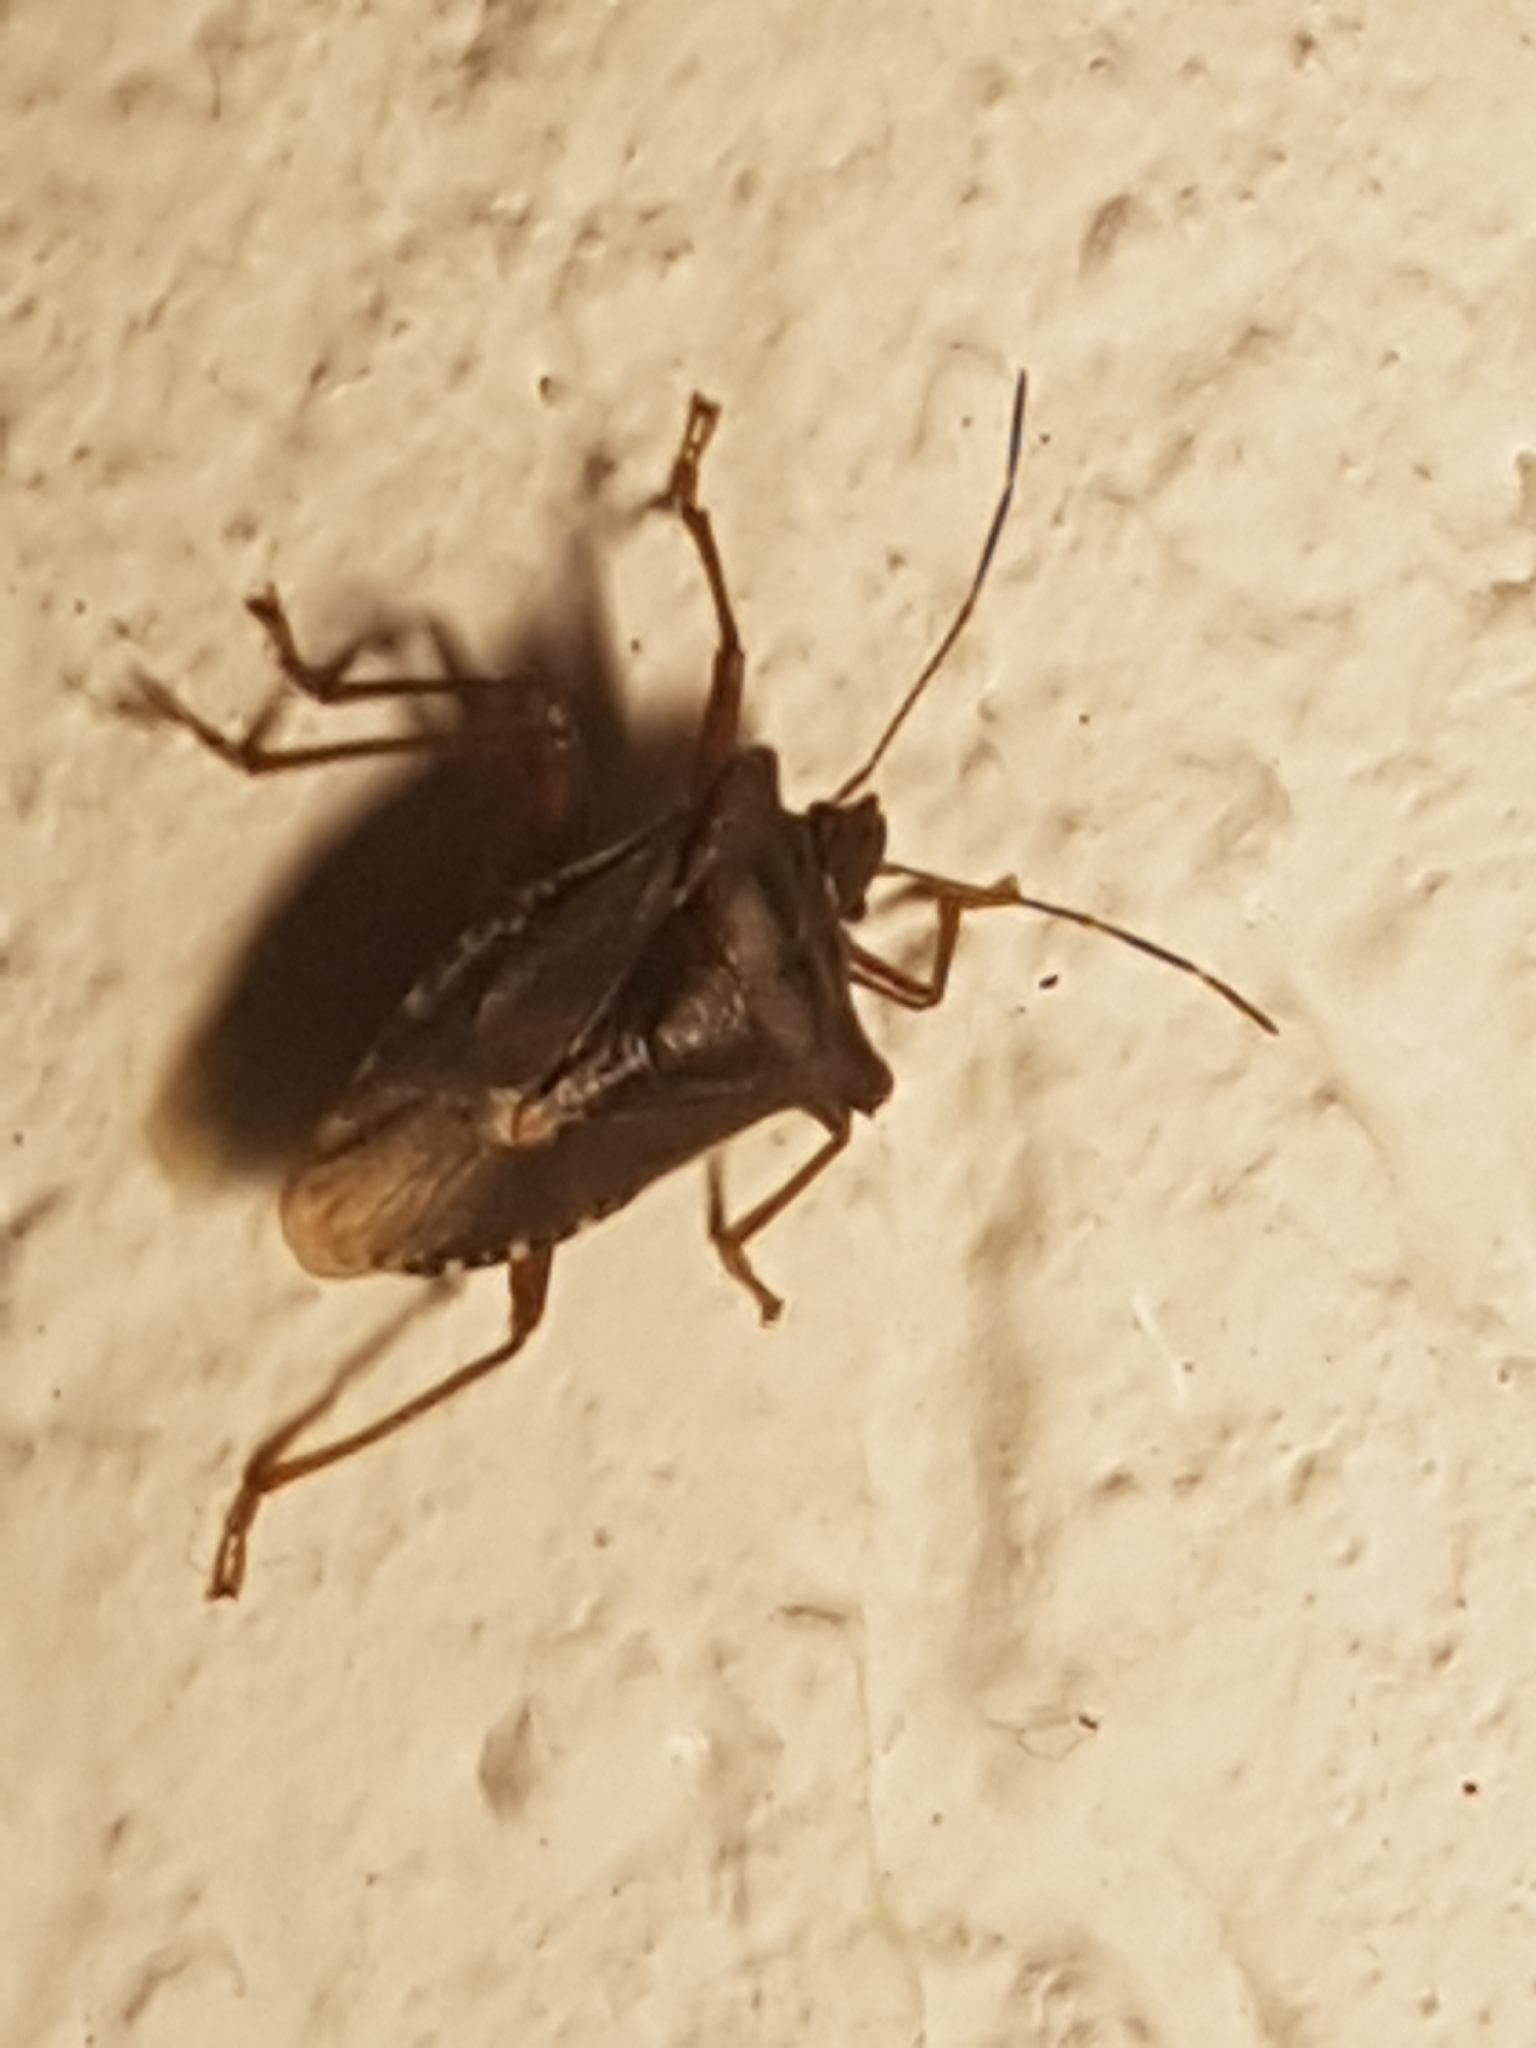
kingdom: Animalia
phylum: Arthropoda
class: Insecta
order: Hemiptera
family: Pentatomidae
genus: Pentatoma
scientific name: Pentatoma rufipes
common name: Forest bug
